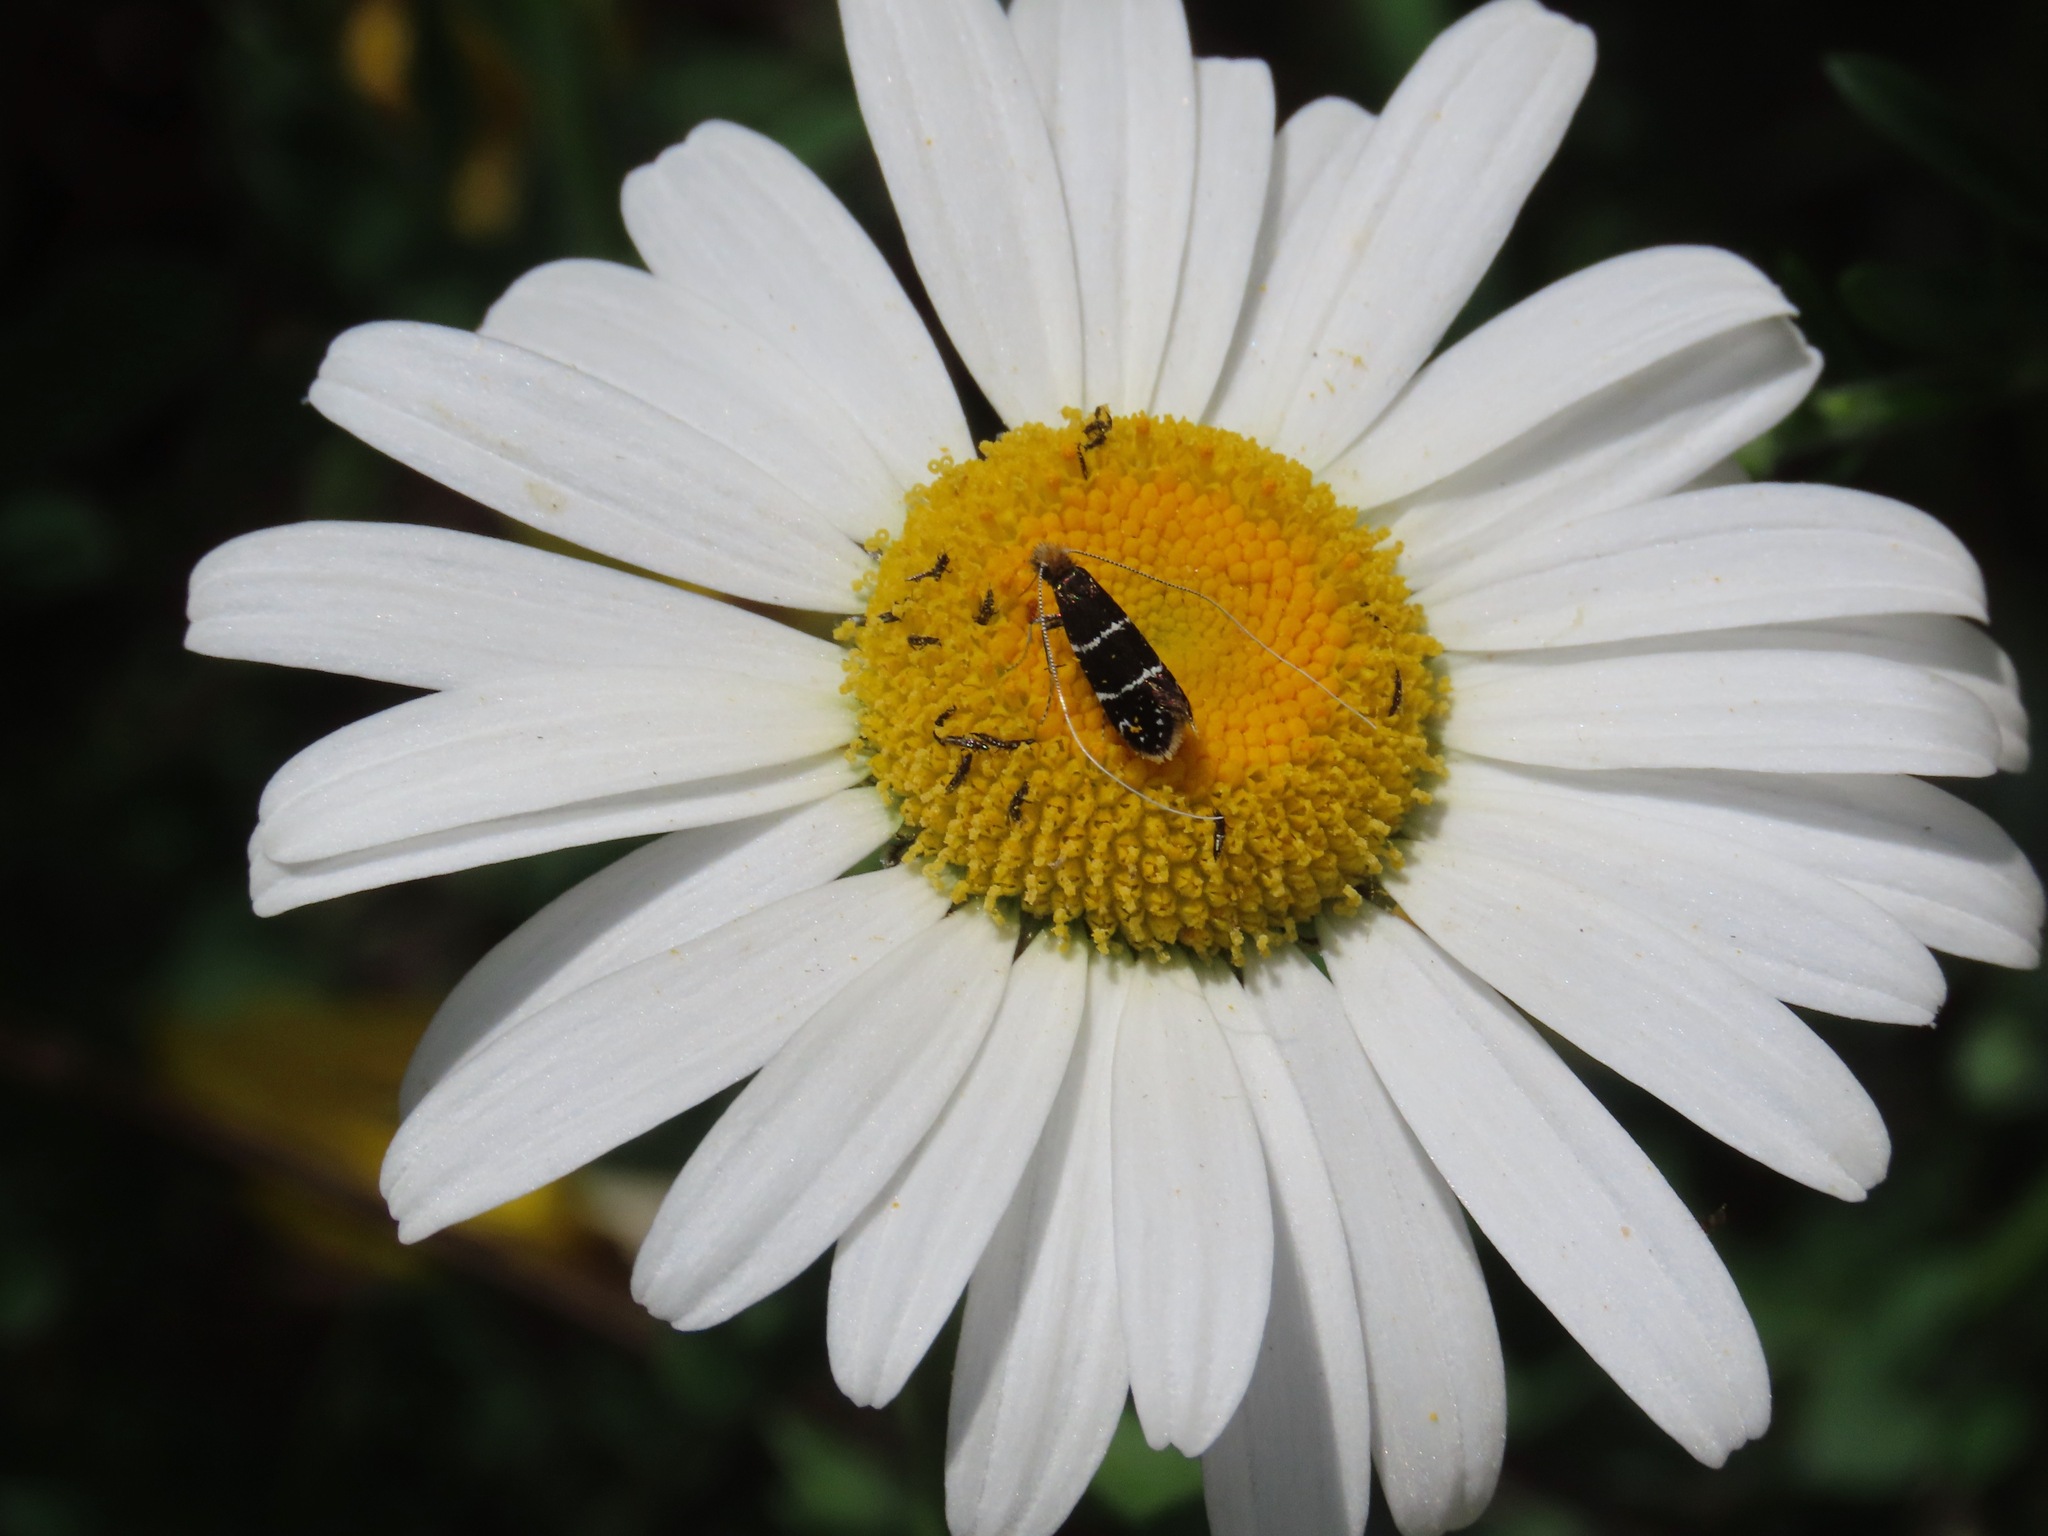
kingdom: Animalia
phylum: Arthropoda
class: Insecta
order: Lepidoptera
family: Adelidae
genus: Adela
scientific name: Adela septentrionella
